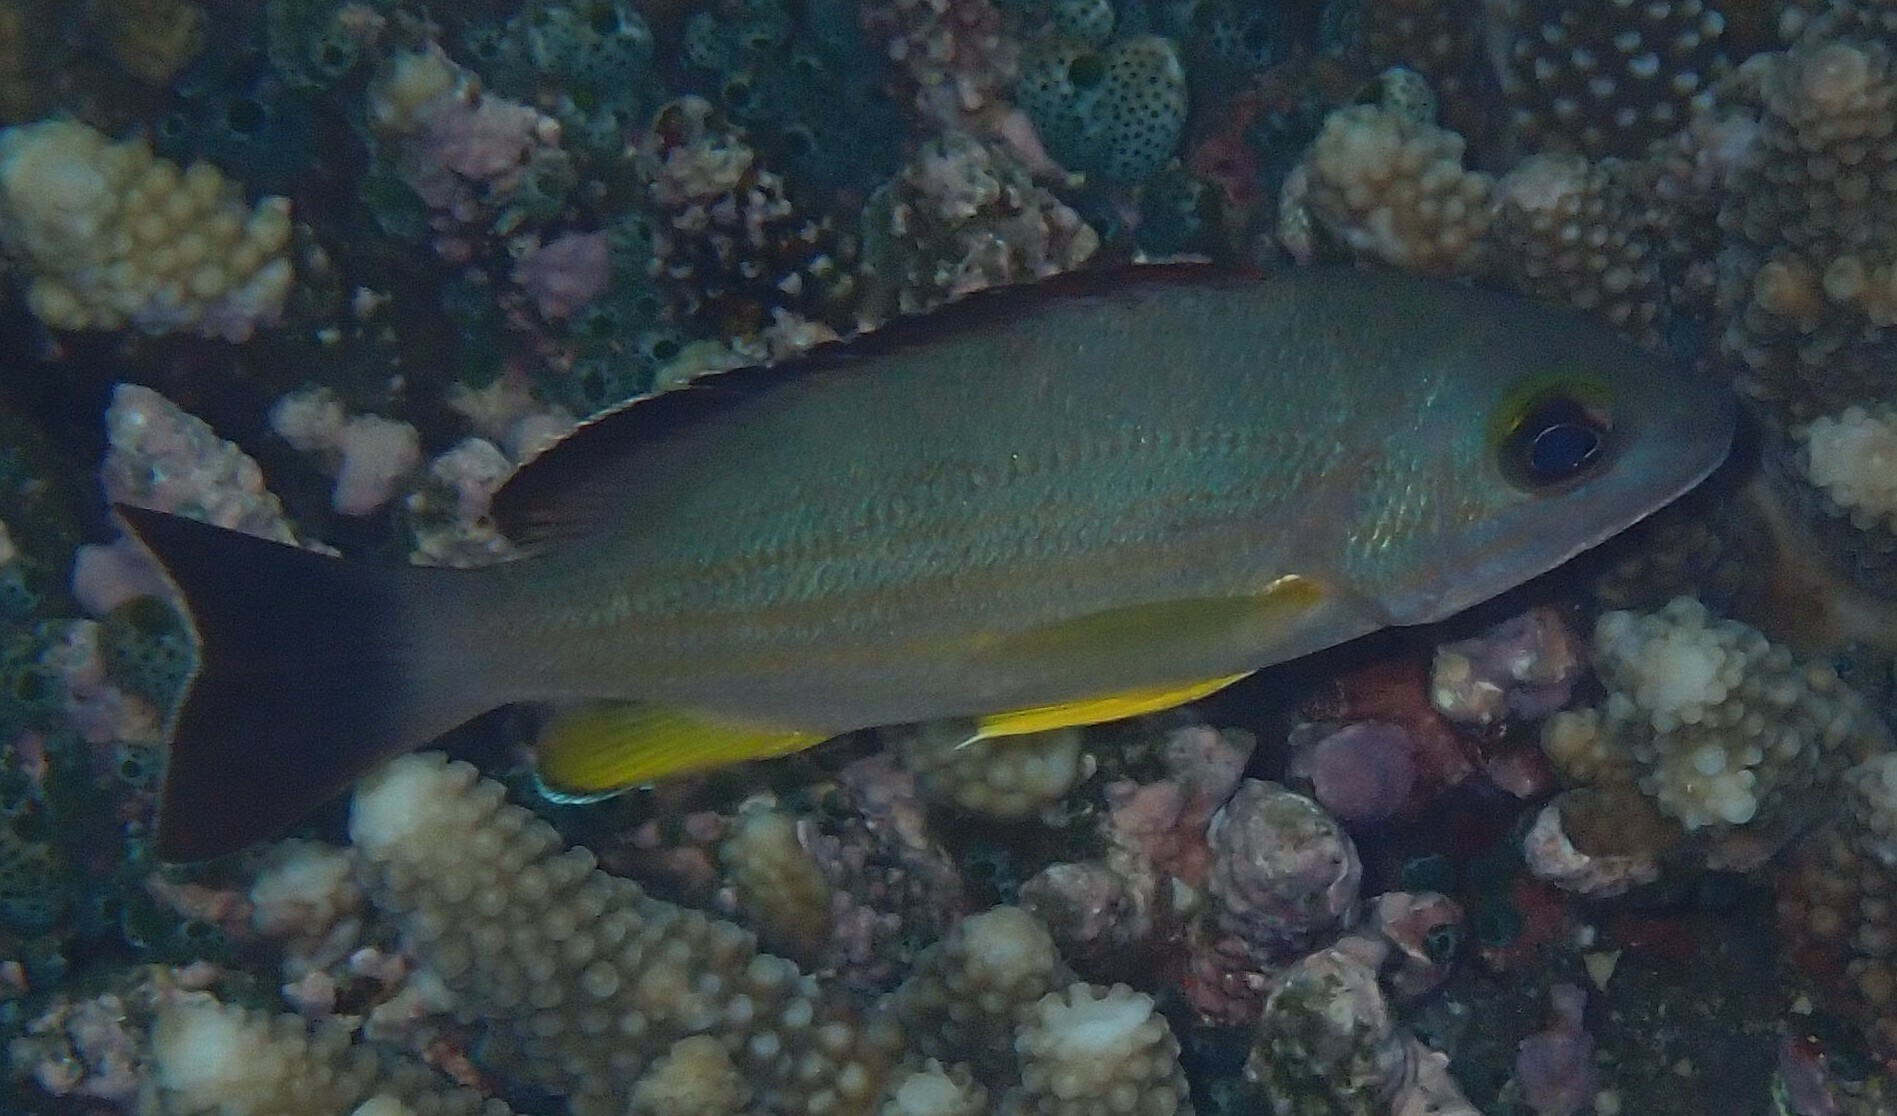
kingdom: Animalia
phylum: Chordata
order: Perciformes
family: Lutjanidae
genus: Lutjanus
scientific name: Lutjanus fulvus
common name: Blacktail snapper
